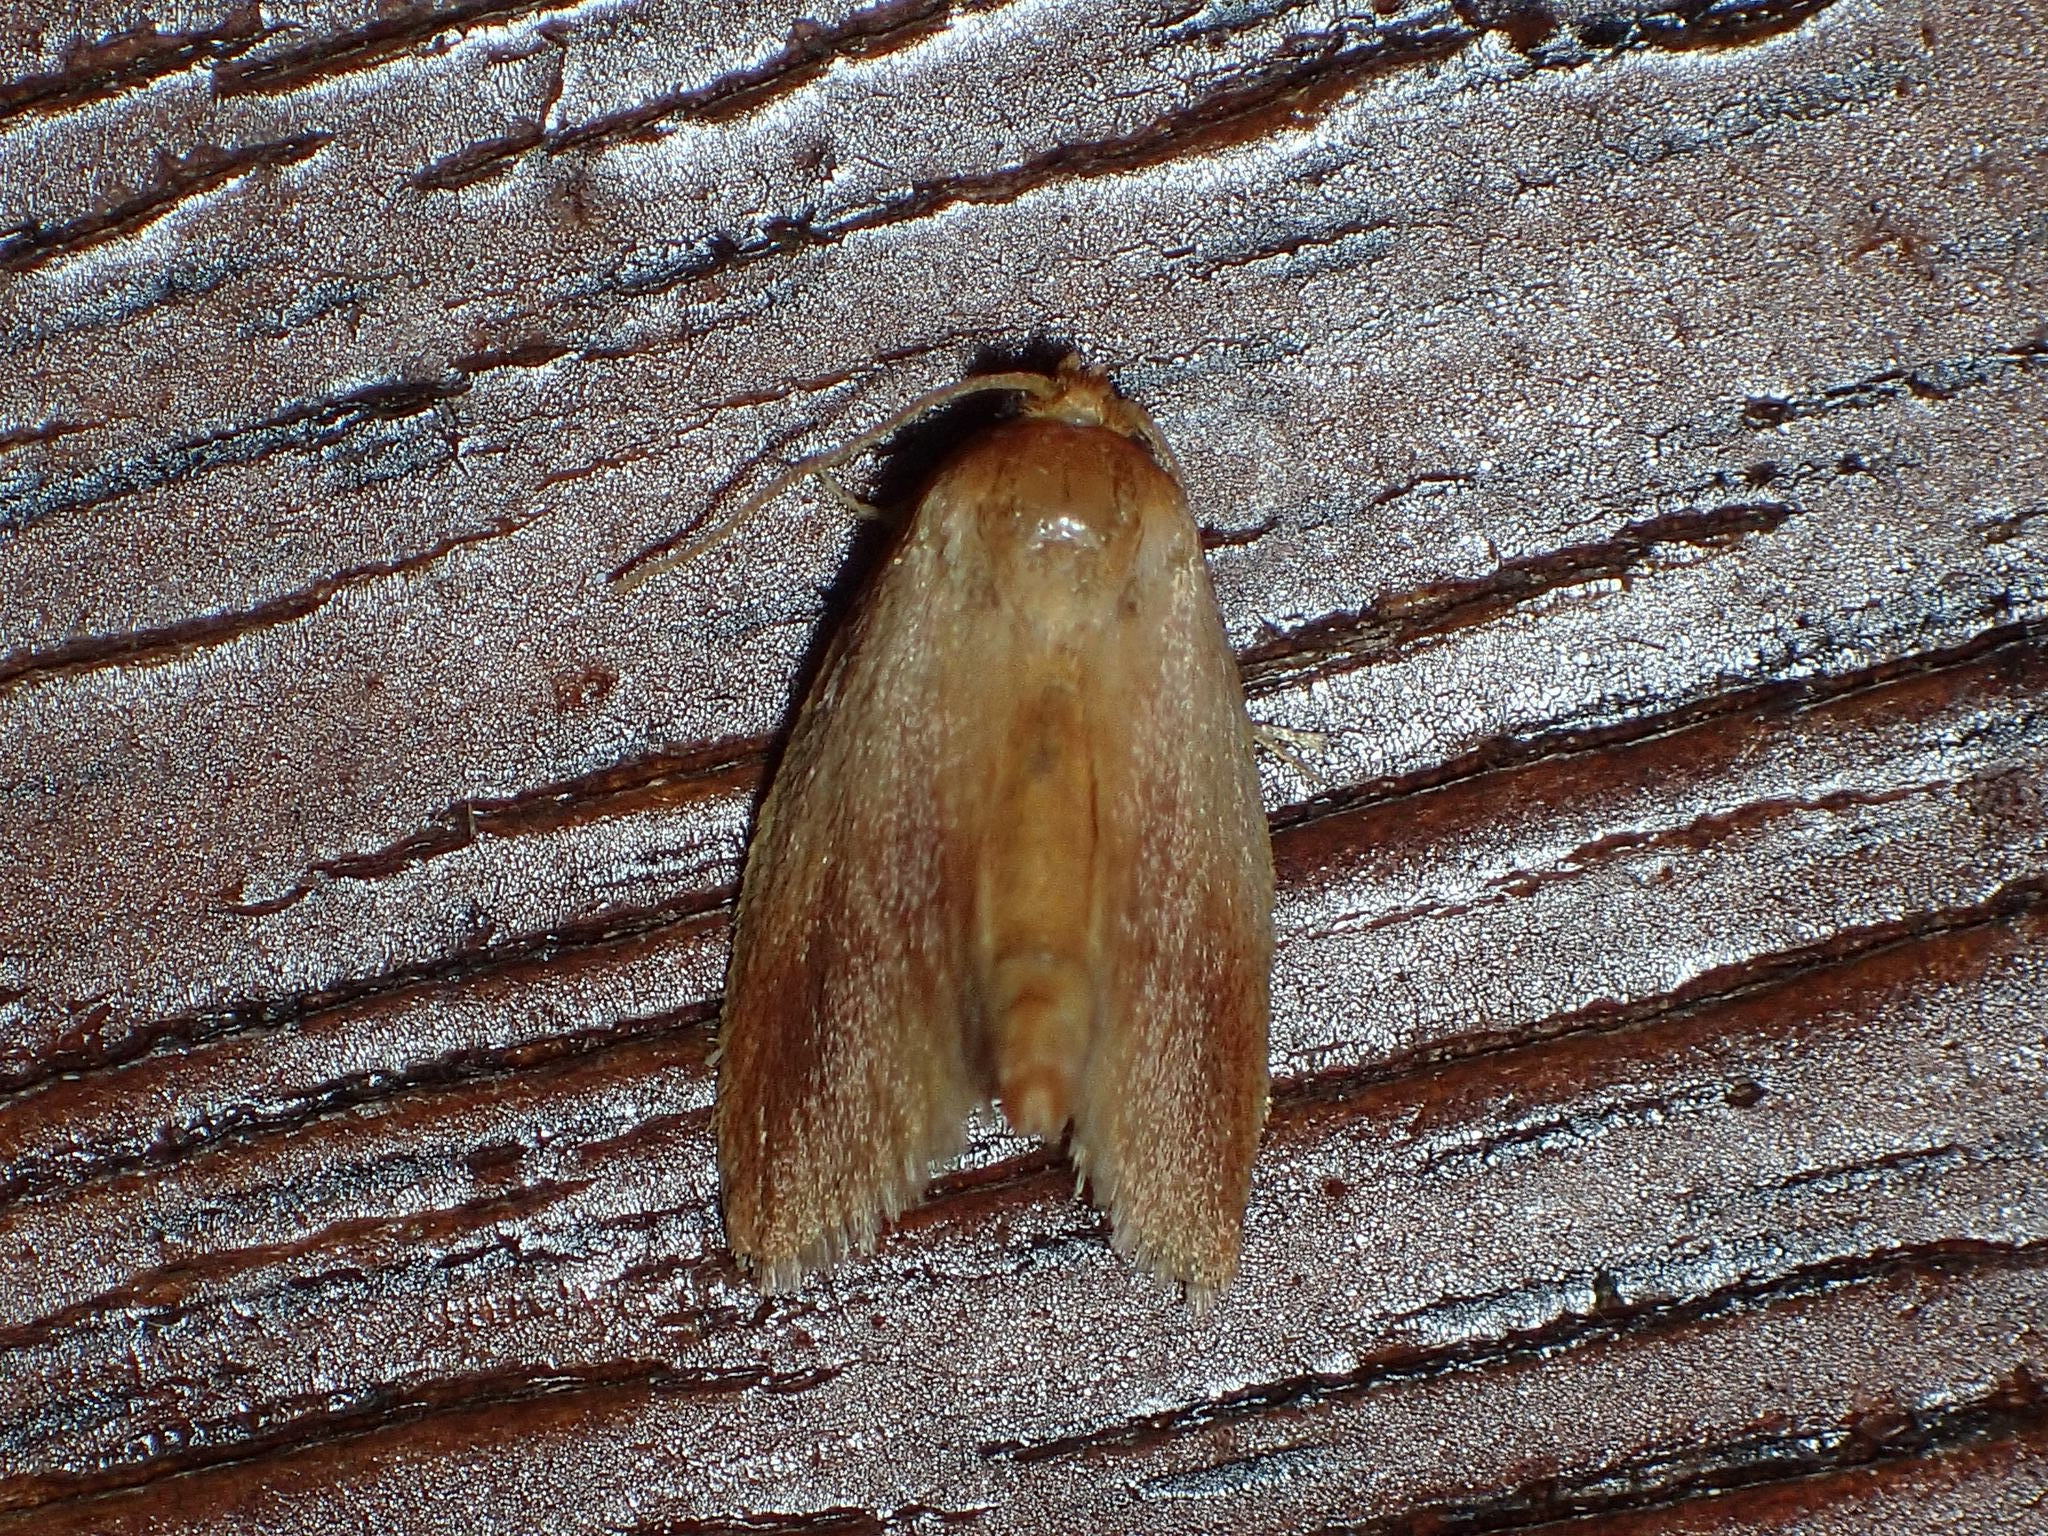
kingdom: Animalia
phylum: Arthropoda
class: Insecta
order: Lepidoptera
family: Limacodidae
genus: Tortricidia
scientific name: Tortricidia testacea
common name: Early button slug moth
